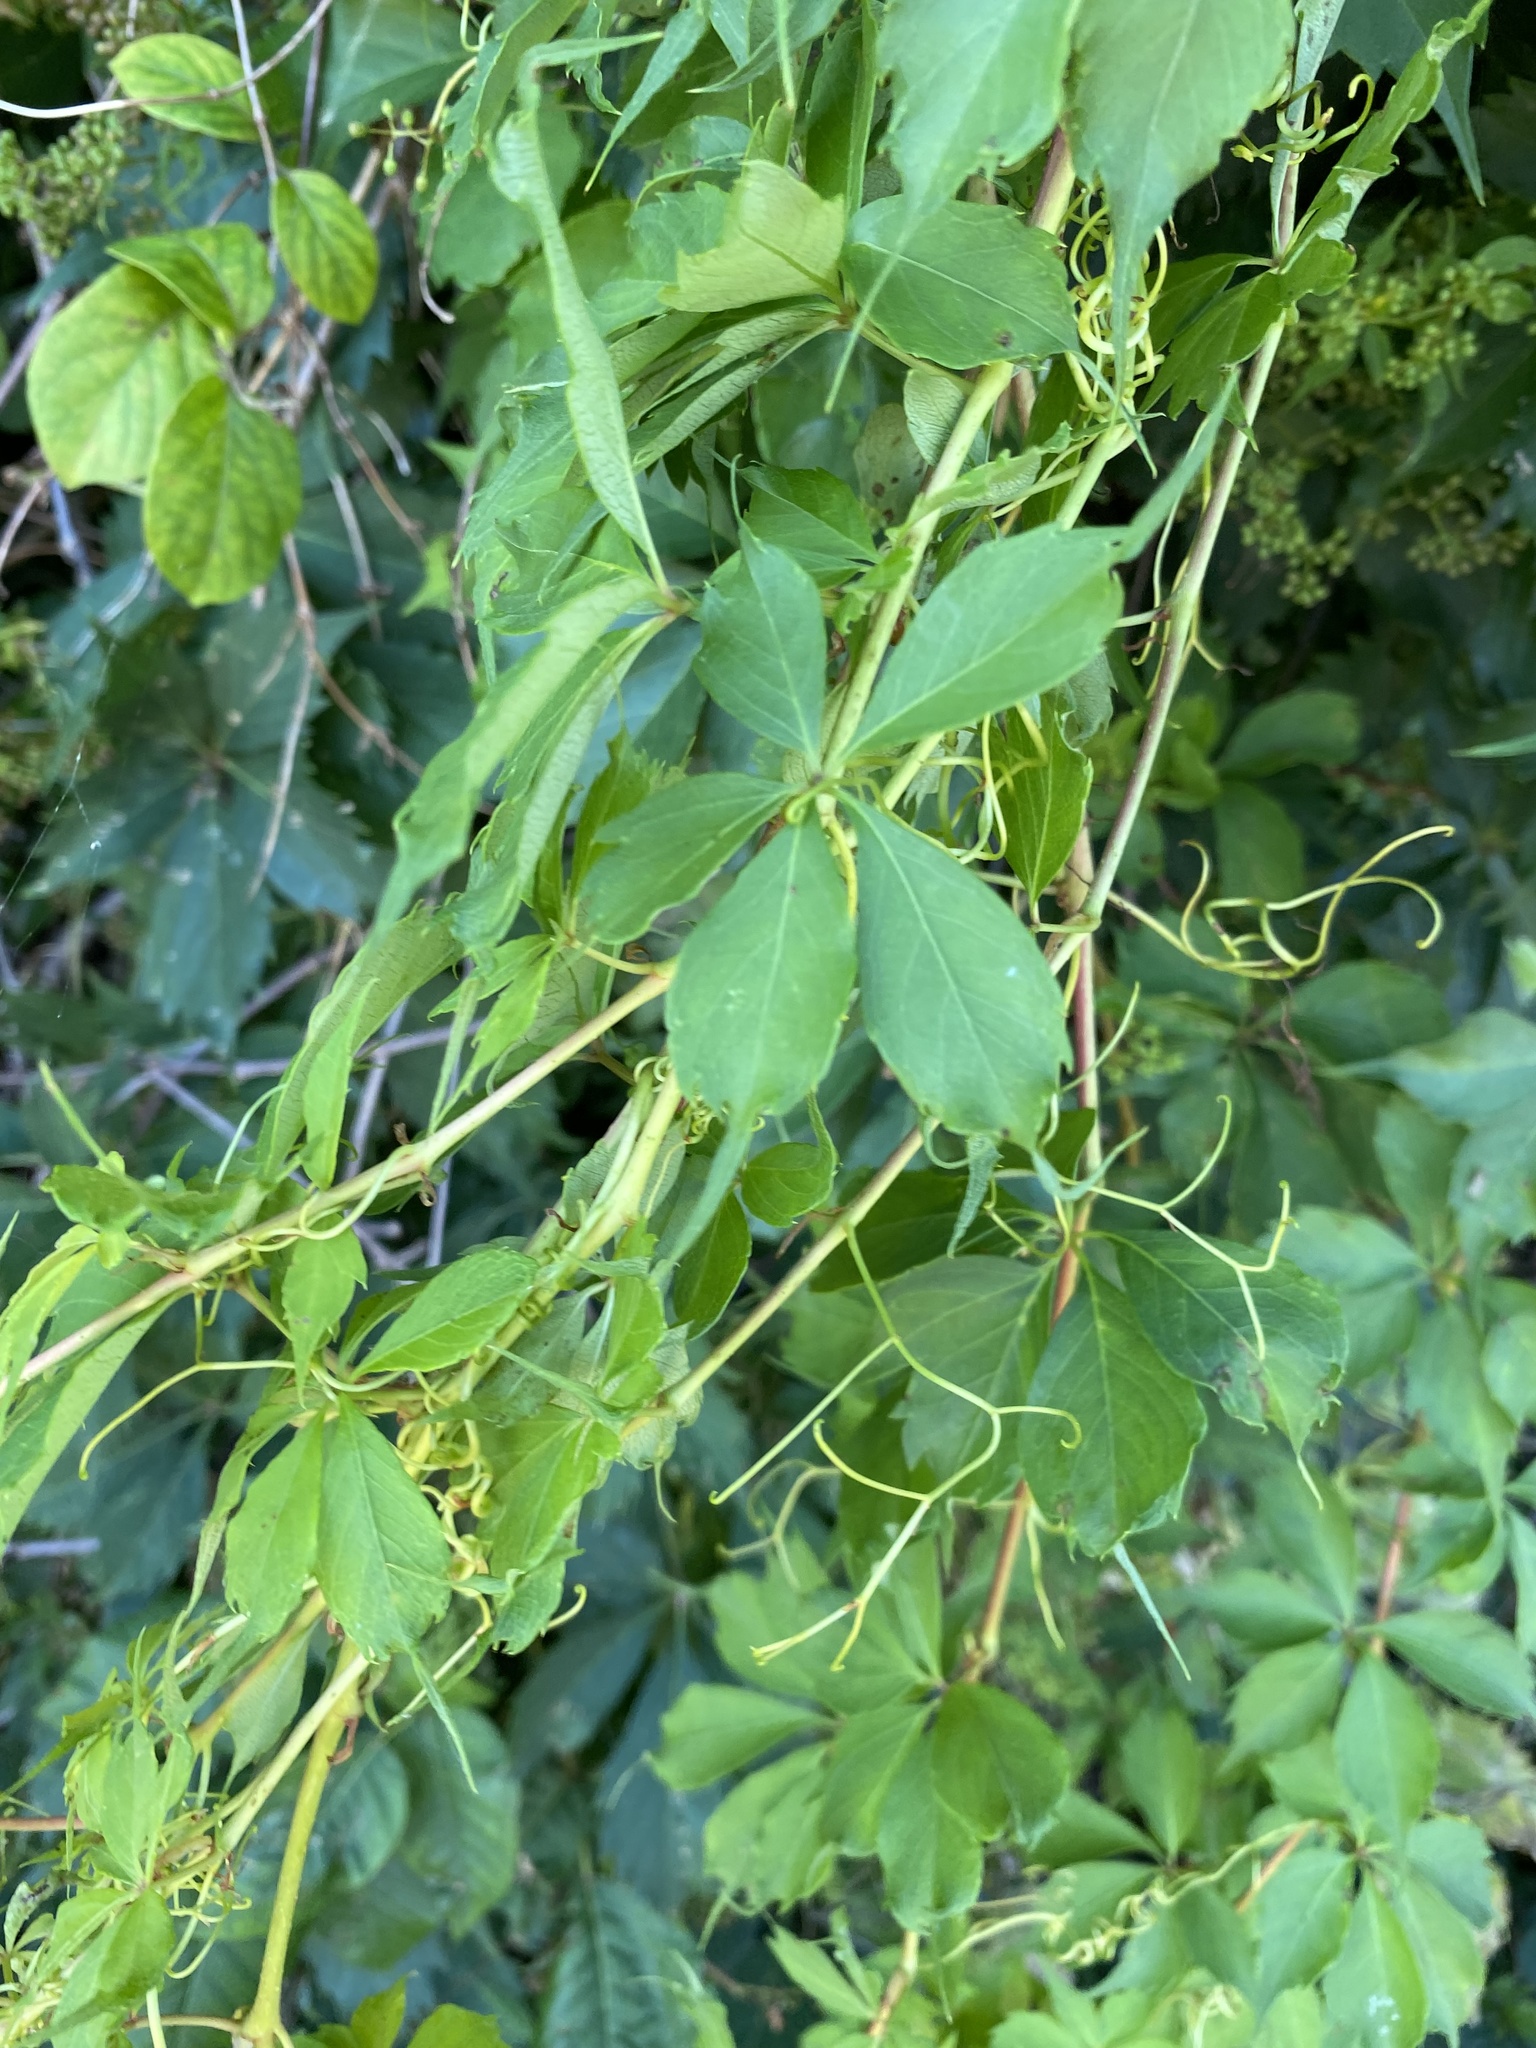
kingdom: Plantae
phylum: Tracheophyta
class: Magnoliopsida
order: Vitales
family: Vitaceae
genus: Parthenocissus
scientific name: Parthenocissus quinquefolia
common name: Virginia-creeper
